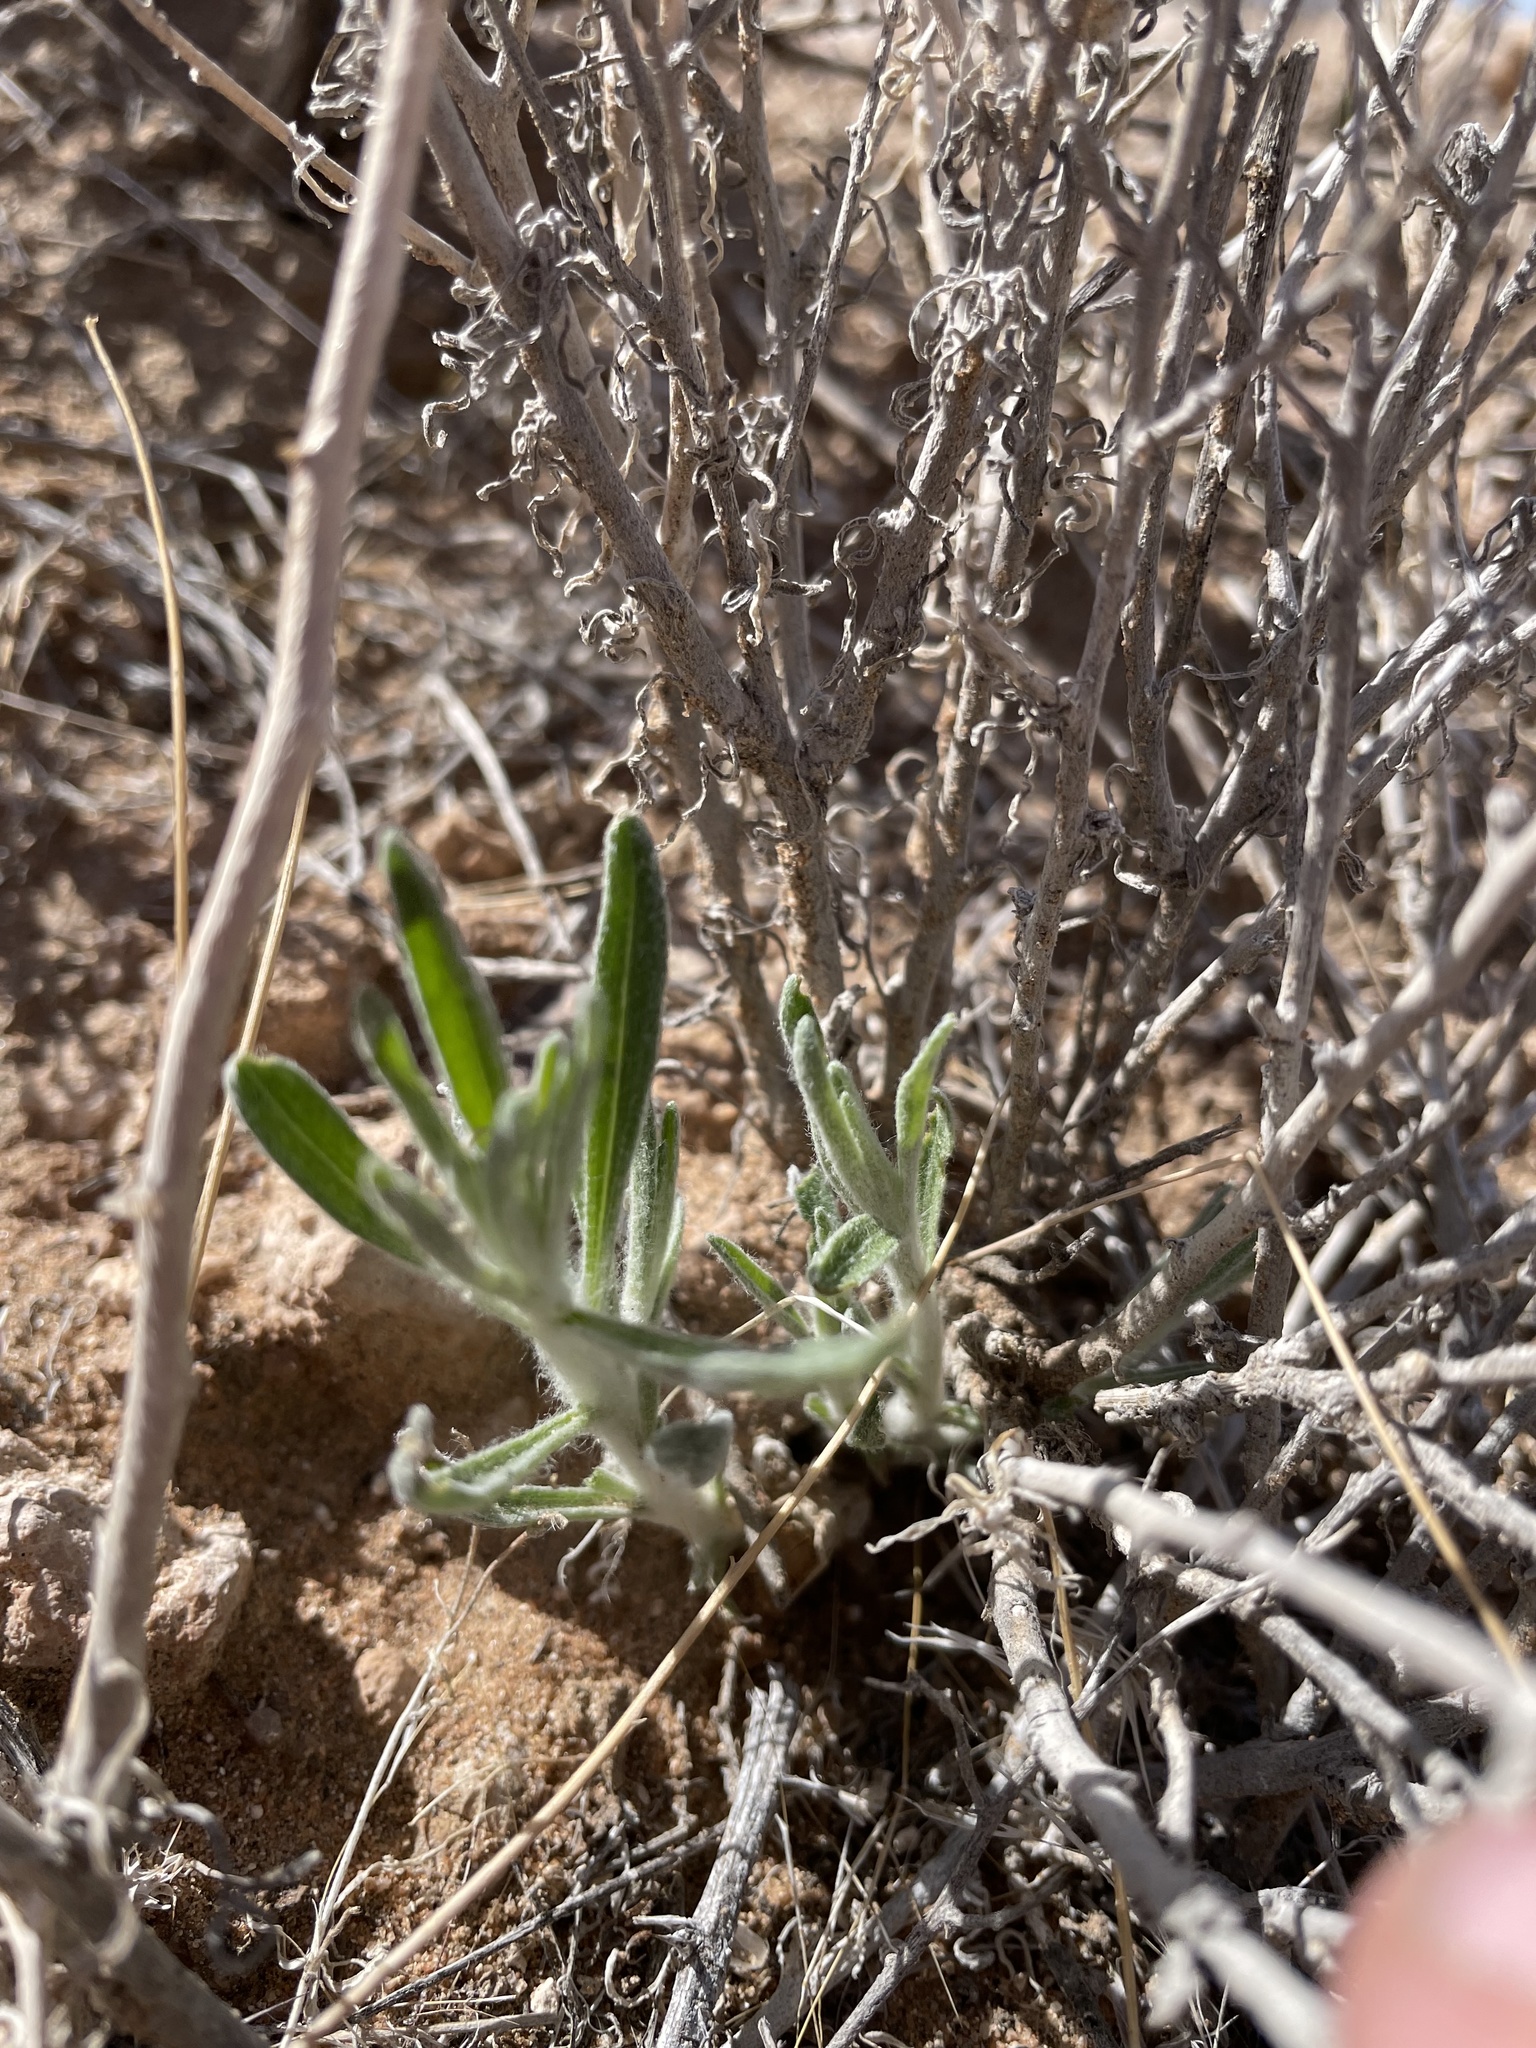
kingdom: Plantae
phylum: Tracheophyta
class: Magnoliopsida
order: Asterales
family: Asteraceae
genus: Psilostrophe
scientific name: Psilostrophe cooperi
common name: White-stem paper-flower
